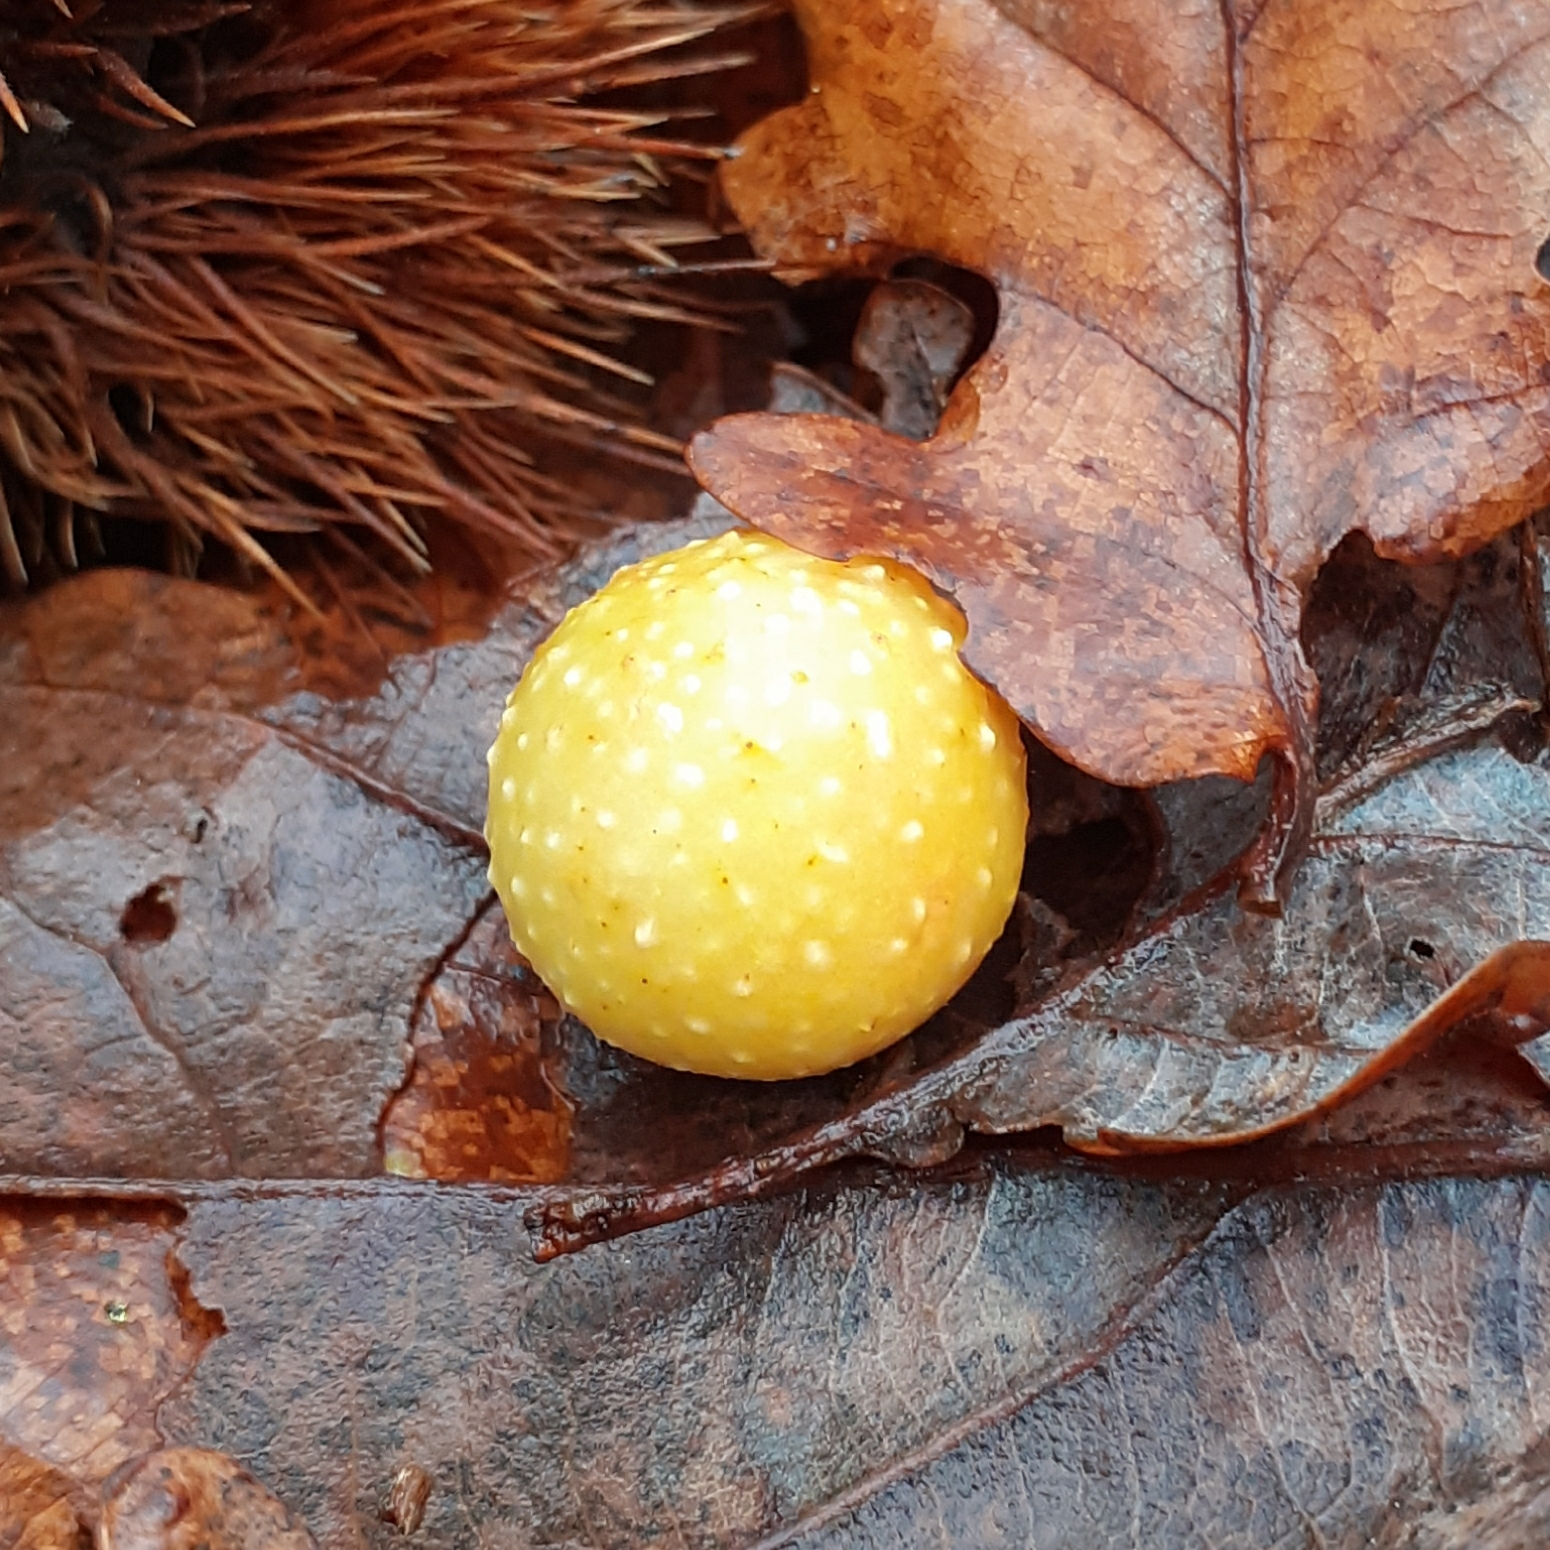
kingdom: Animalia
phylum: Arthropoda
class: Insecta
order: Hymenoptera
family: Cynipidae
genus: Cynips
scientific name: Cynips quercusfolii
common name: Cherry gall
